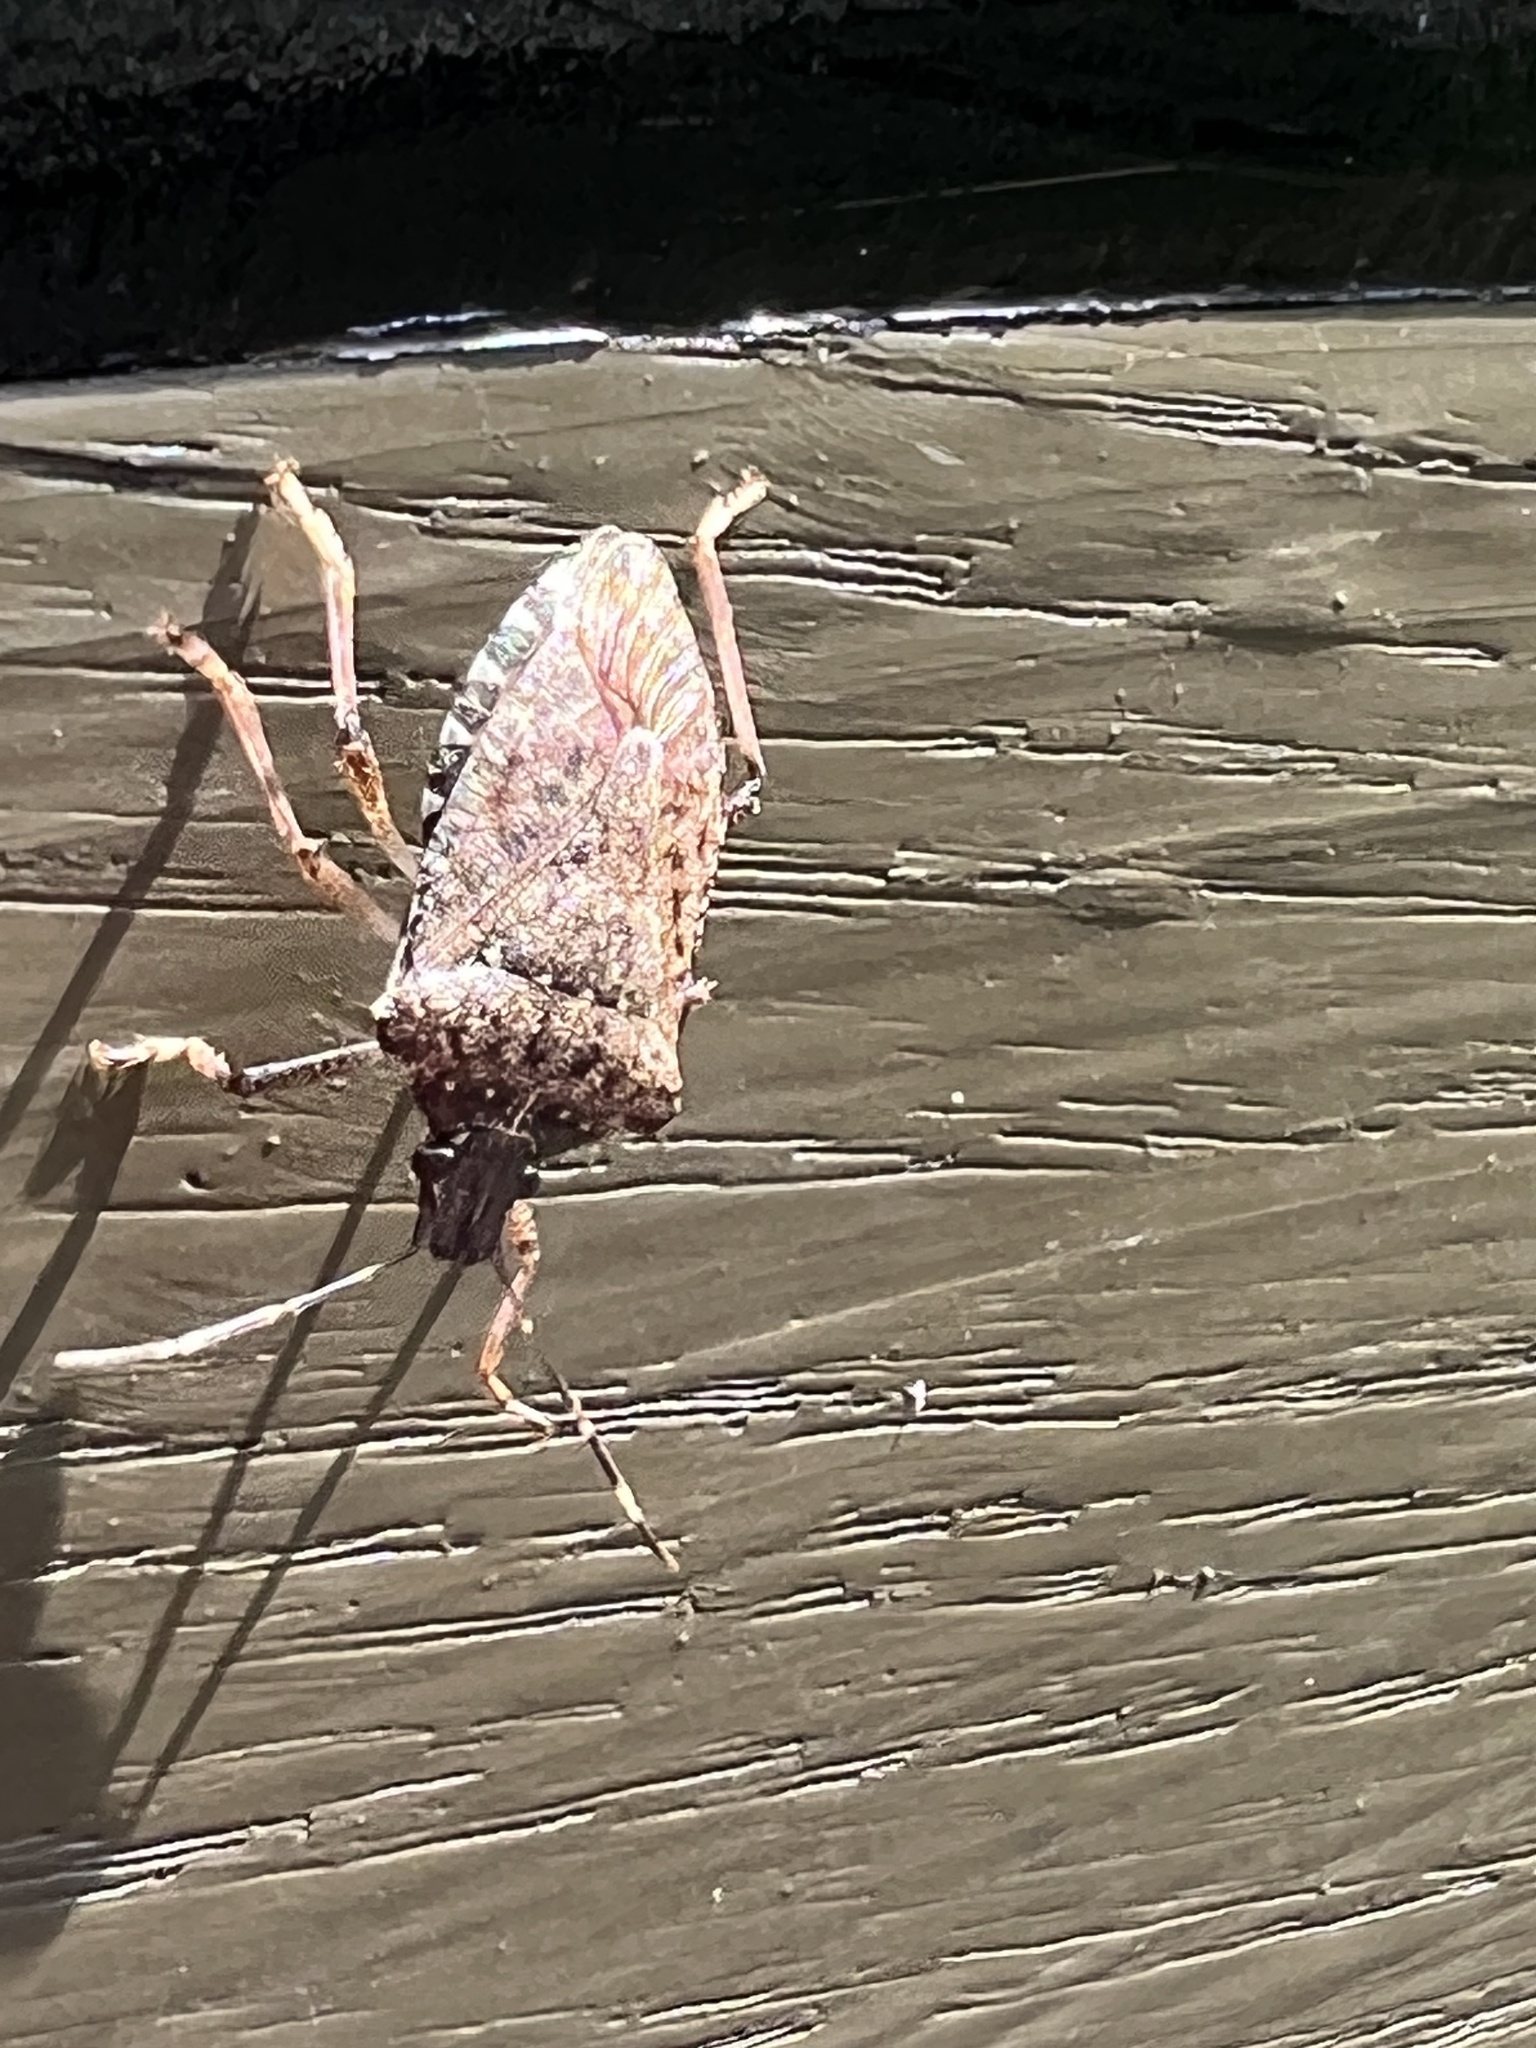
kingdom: Animalia
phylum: Arthropoda
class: Insecta
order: Hemiptera
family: Pentatomidae
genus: Halyomorpha
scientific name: Halyomorpha halys
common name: Brown marmorated stink bug
